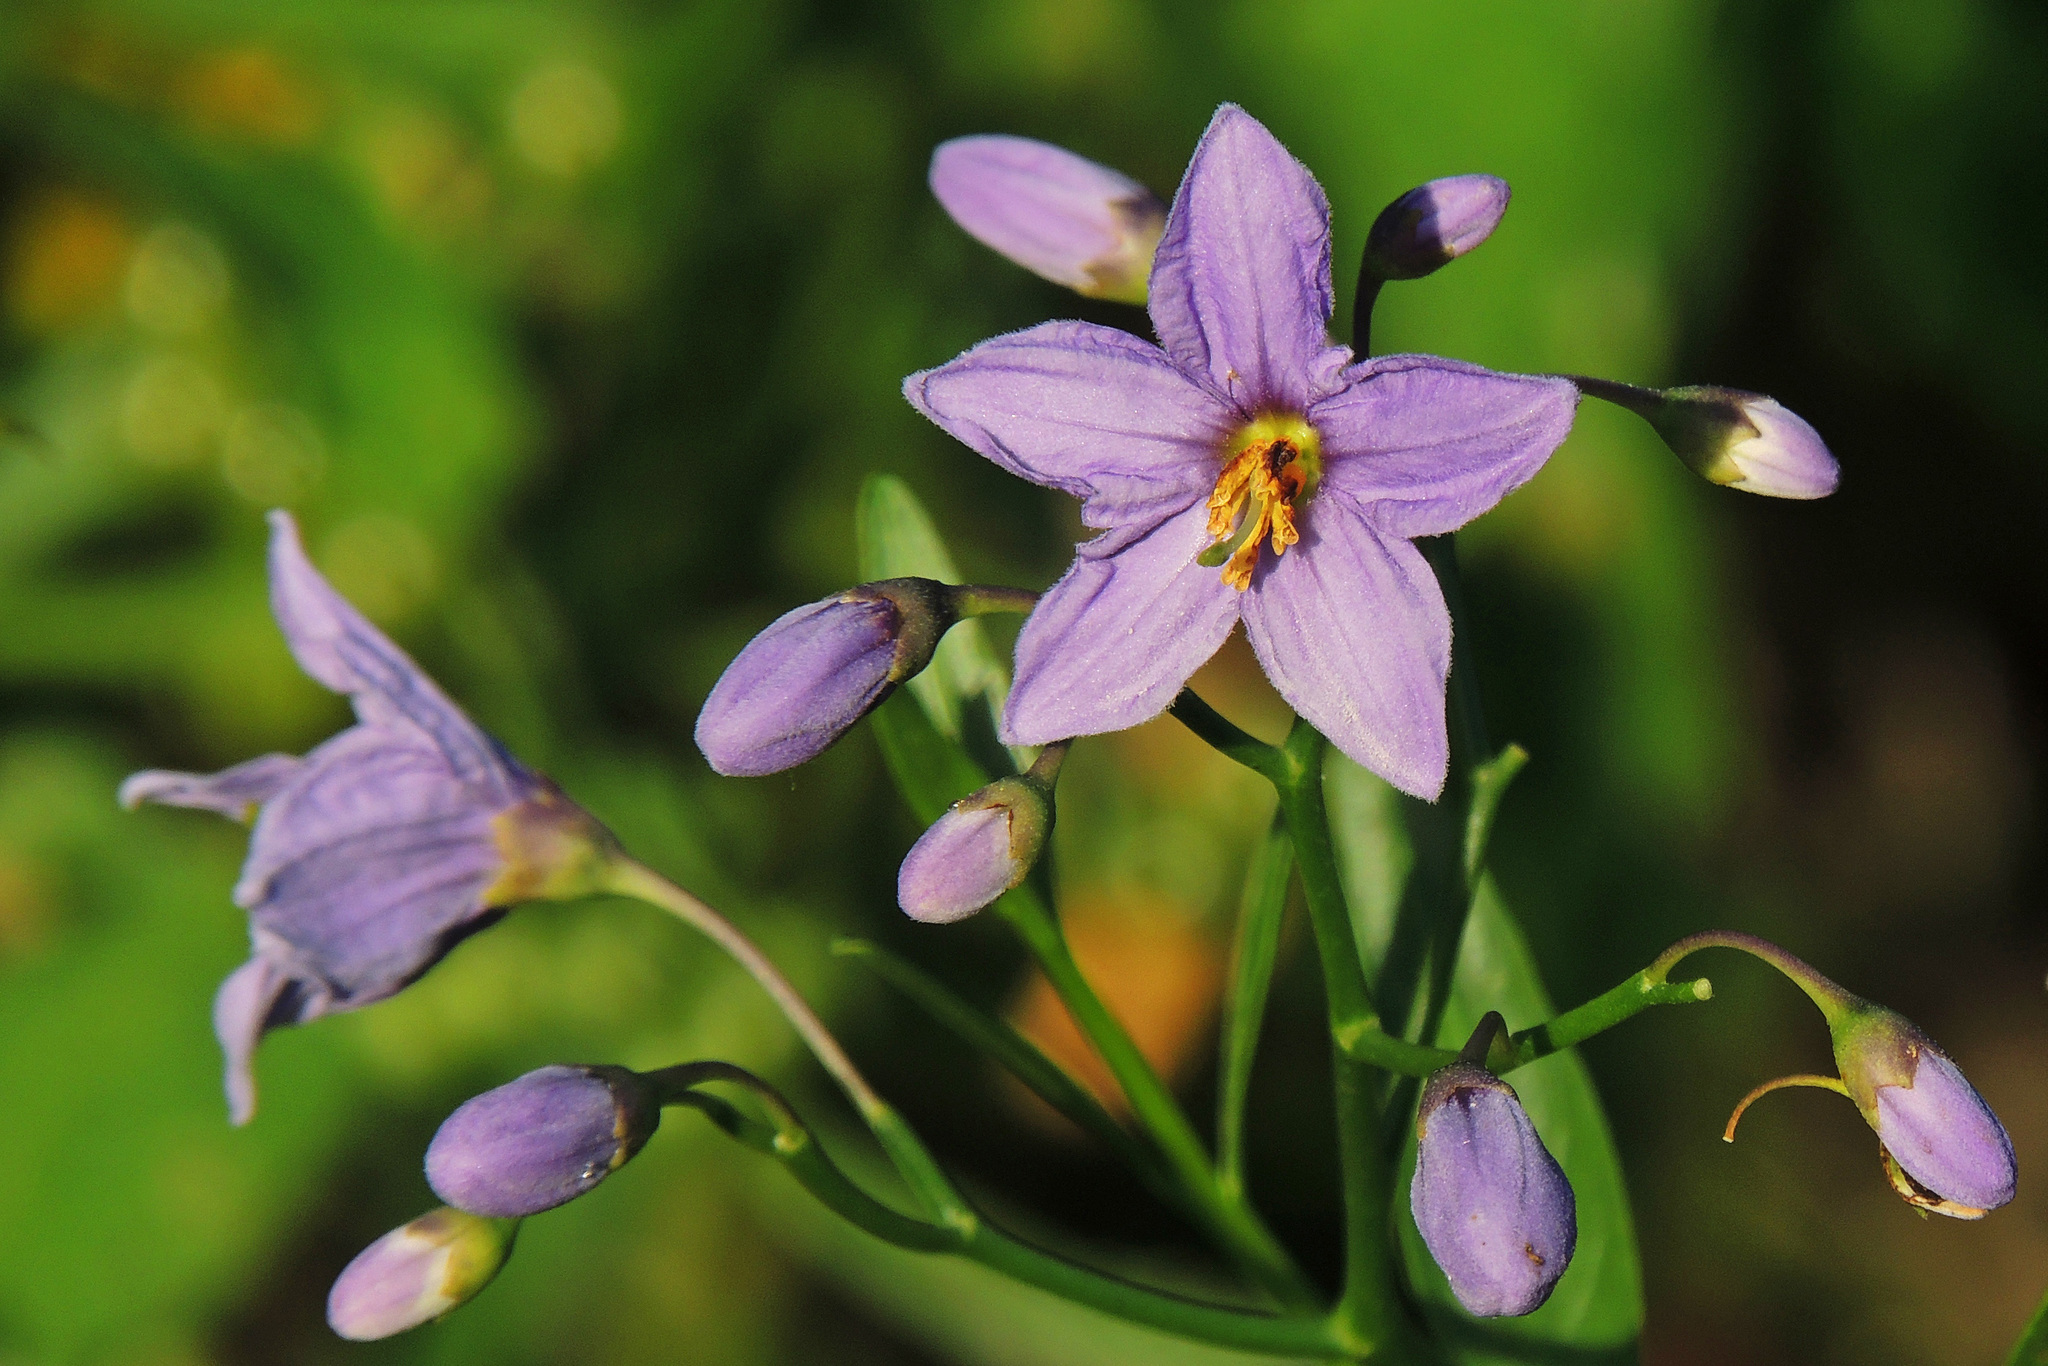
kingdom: Plantae
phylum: Tracheophyta
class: Magnoliopsida
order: Solanales
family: Solanaceae
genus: Solanum
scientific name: Solanum glaucophyllum
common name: Waxyleaf nightshade
